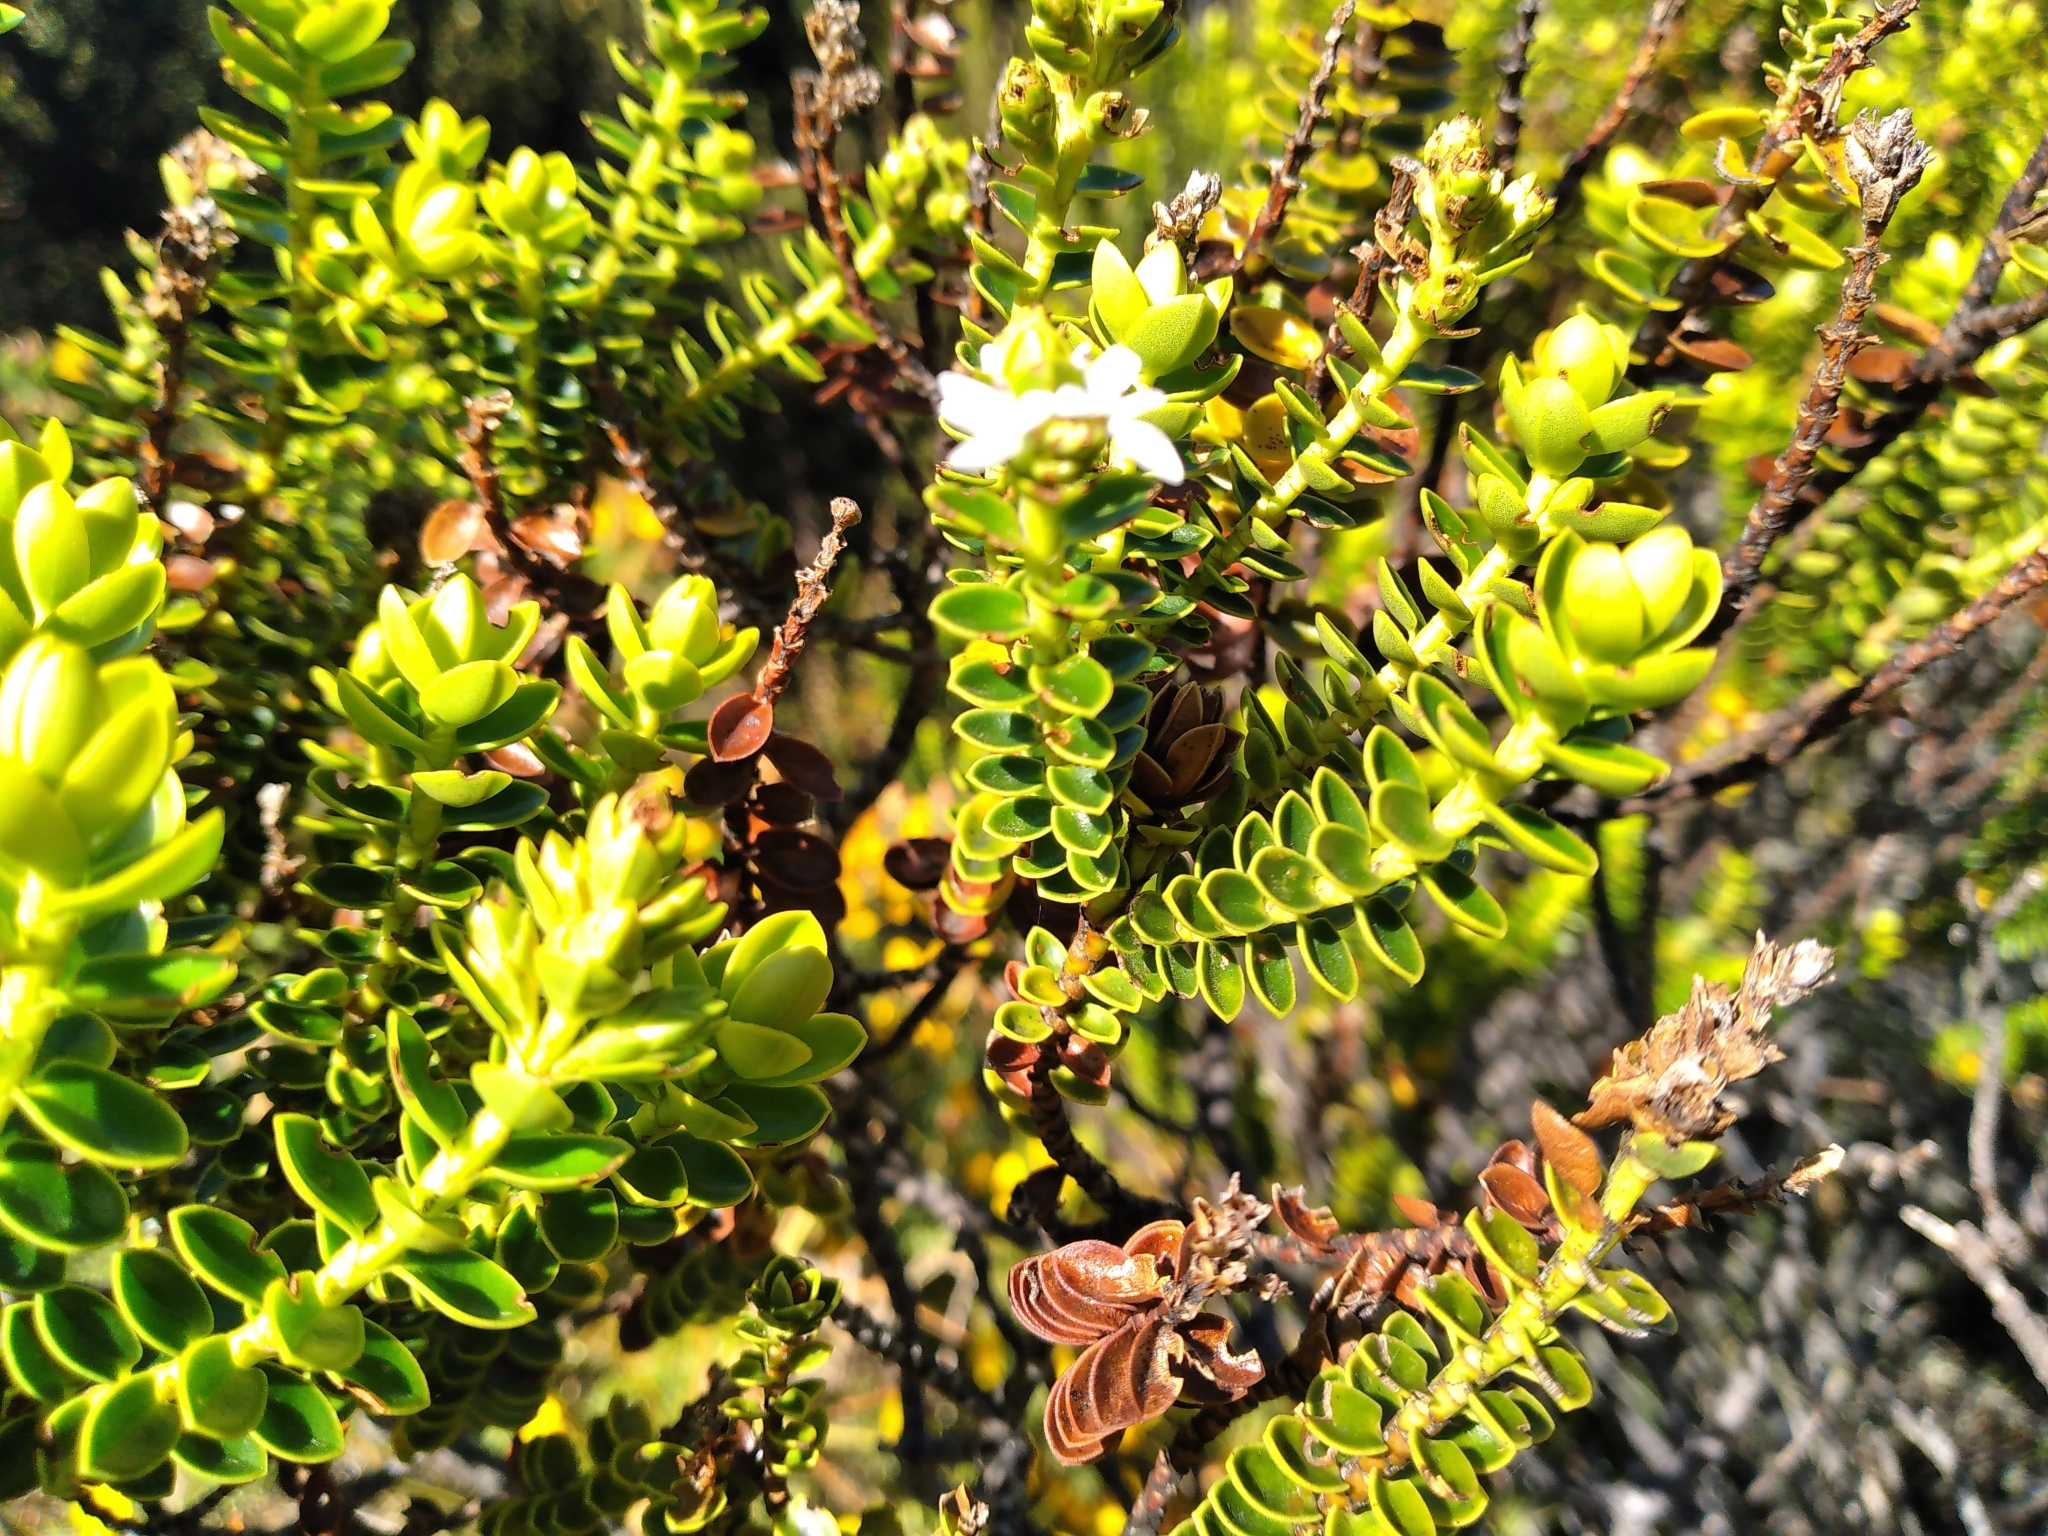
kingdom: Plantae
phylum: Tracheophyta
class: Magnoliopsida
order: Lamiales
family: Plantaginaceae
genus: Veronica
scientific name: Veronica odora
